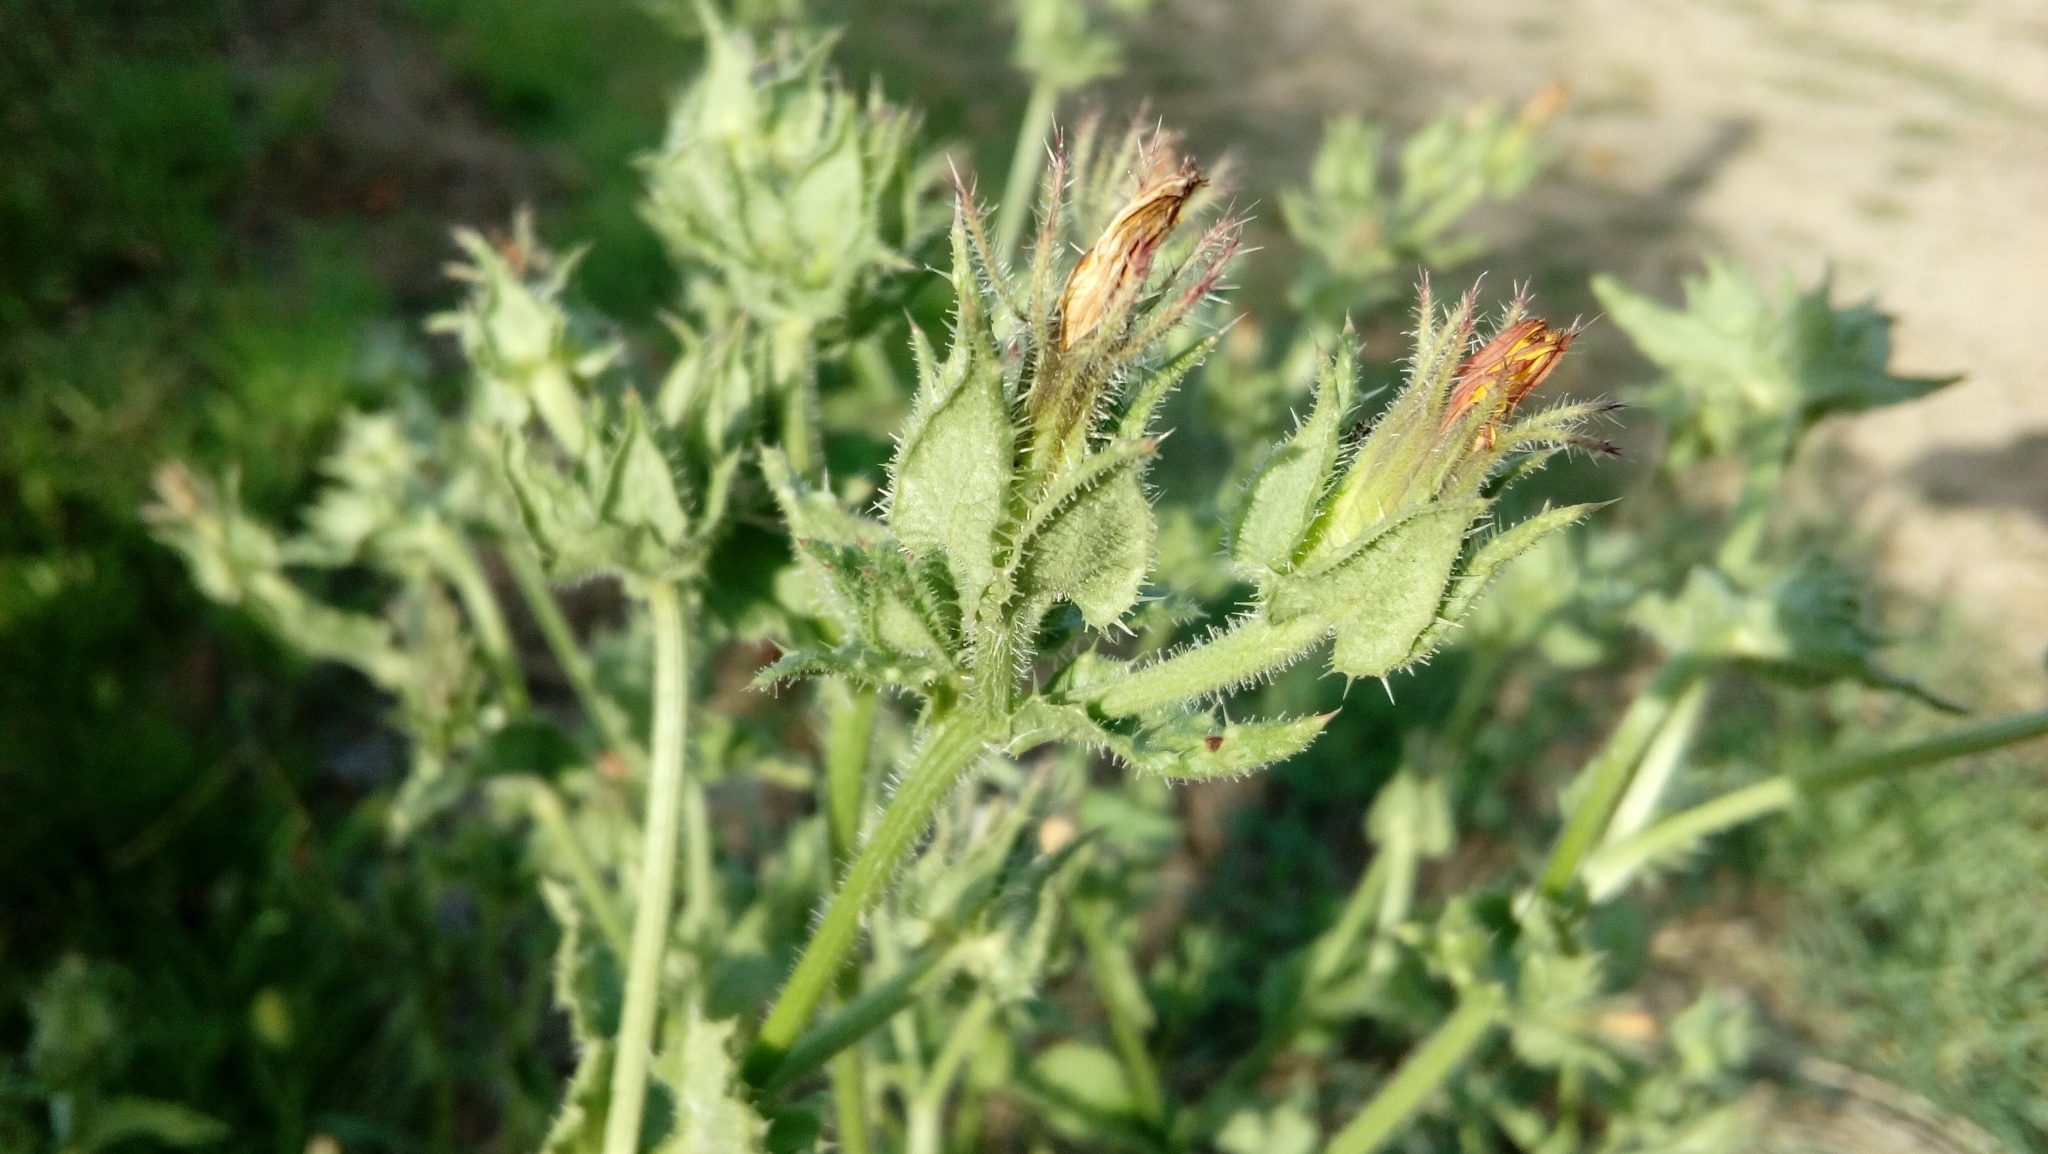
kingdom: Plantae
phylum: Tracheophyta
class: Magnoliopsida
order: Asterales
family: Asteraceae
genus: Helminthotheca
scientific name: Helminthotheca echioides
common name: Ox-tongue
